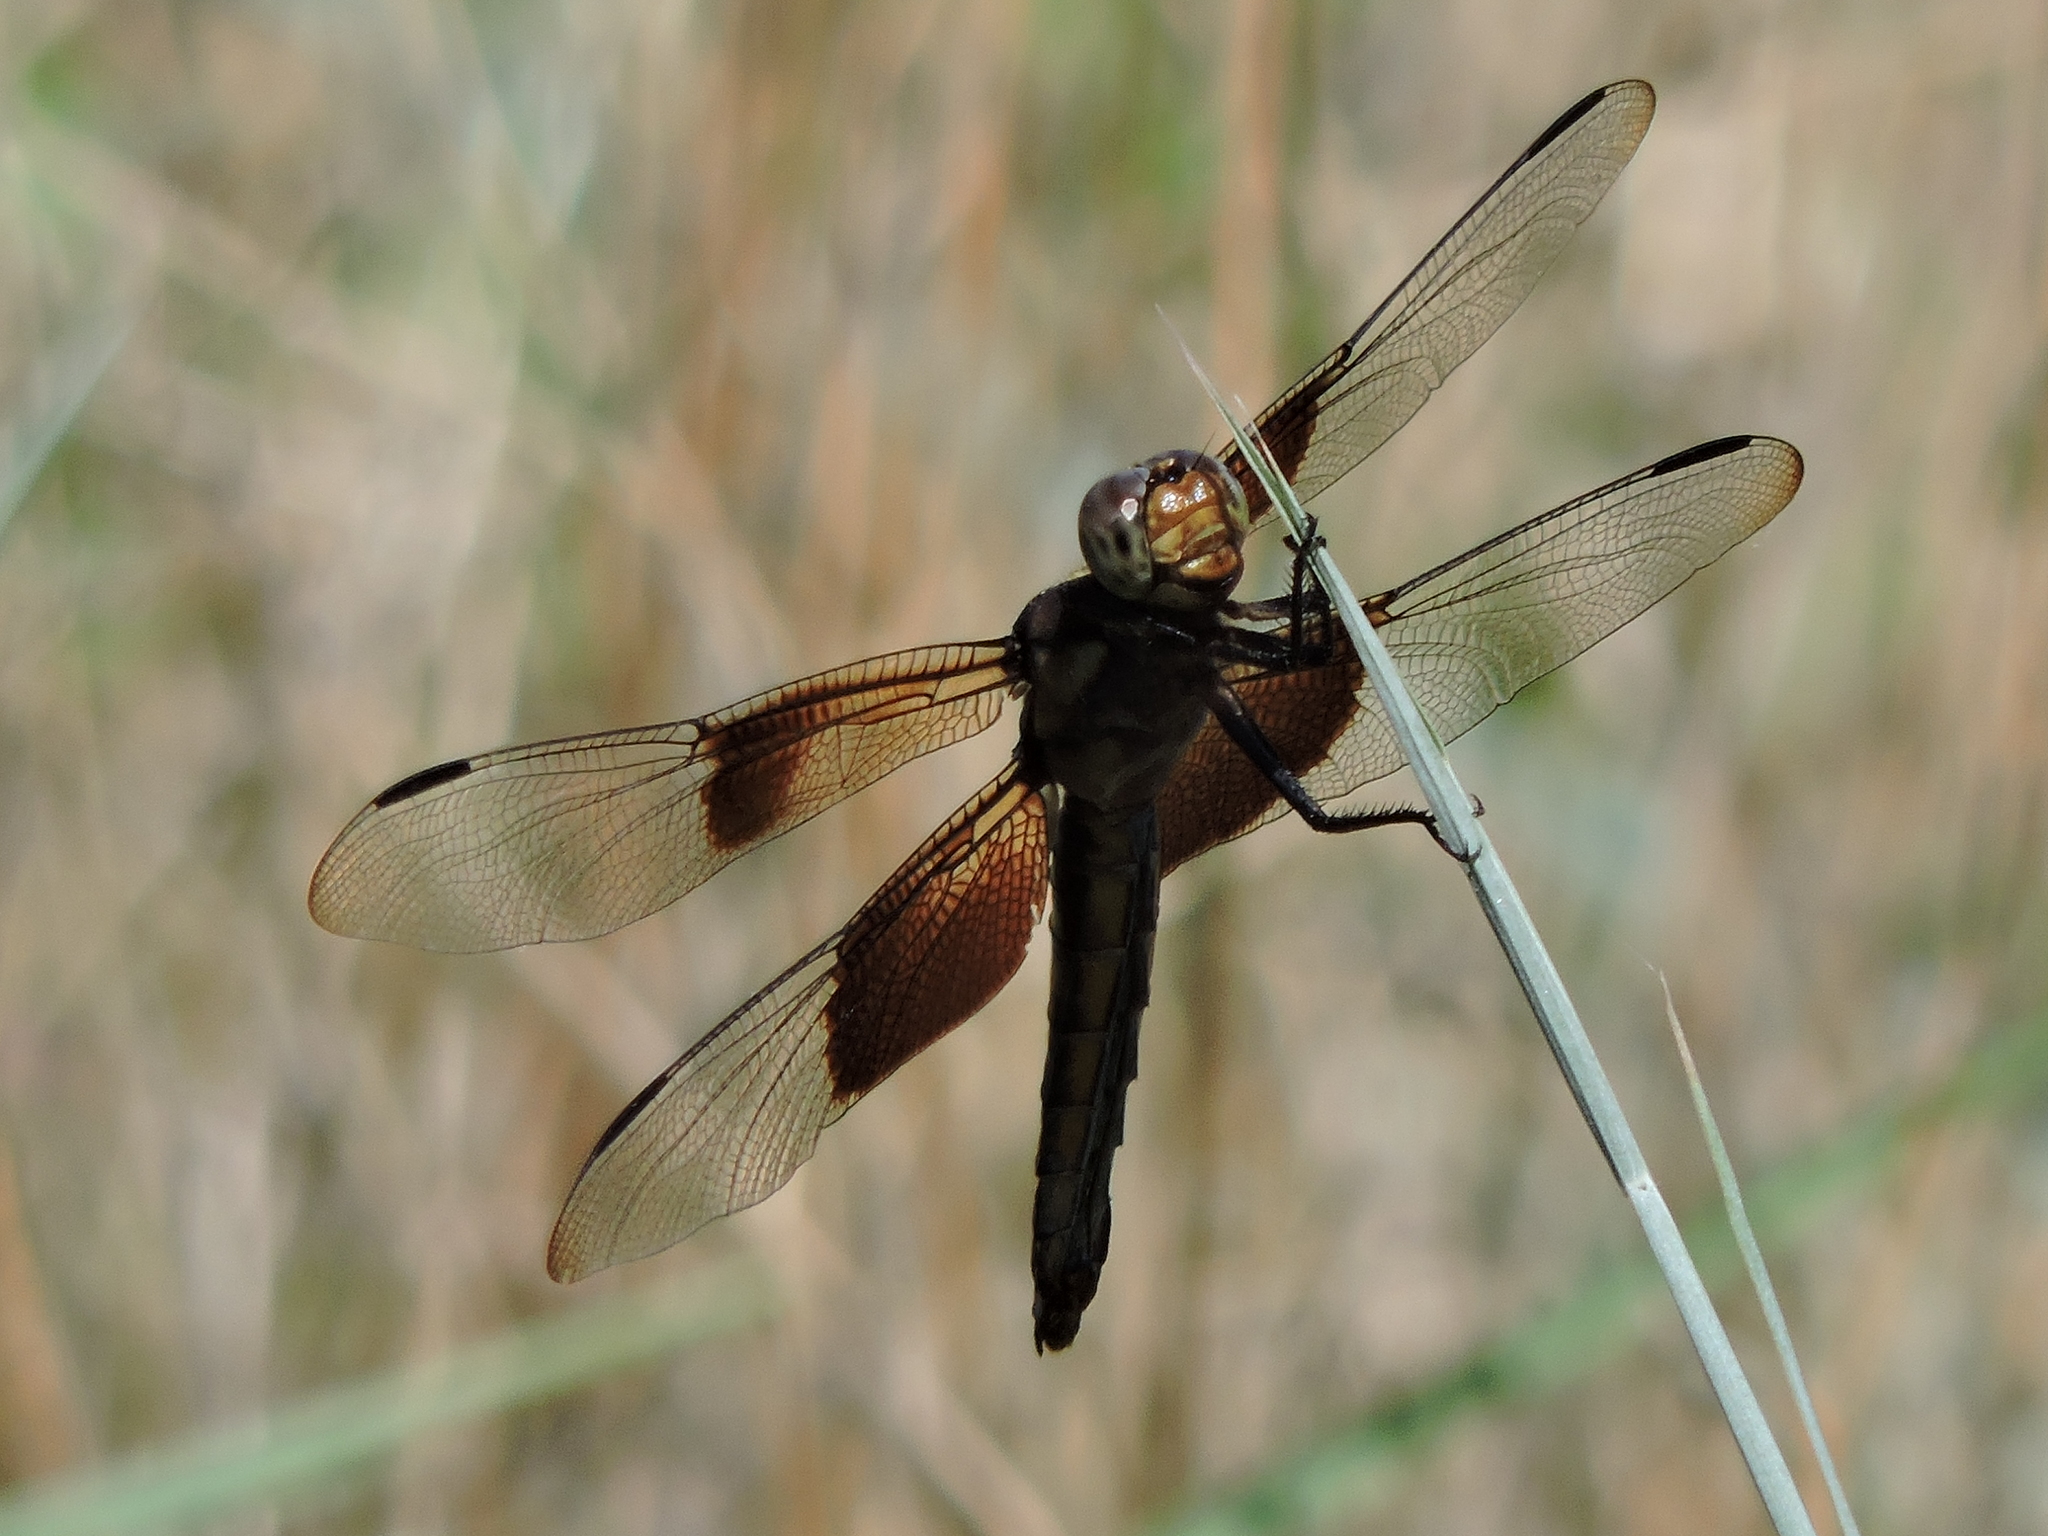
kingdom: Animalia
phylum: Arthropoda
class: Insecta
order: Odonata
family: Libellulidae
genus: Libellula
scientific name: Libellula luctuosa
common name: Widow skimmer
